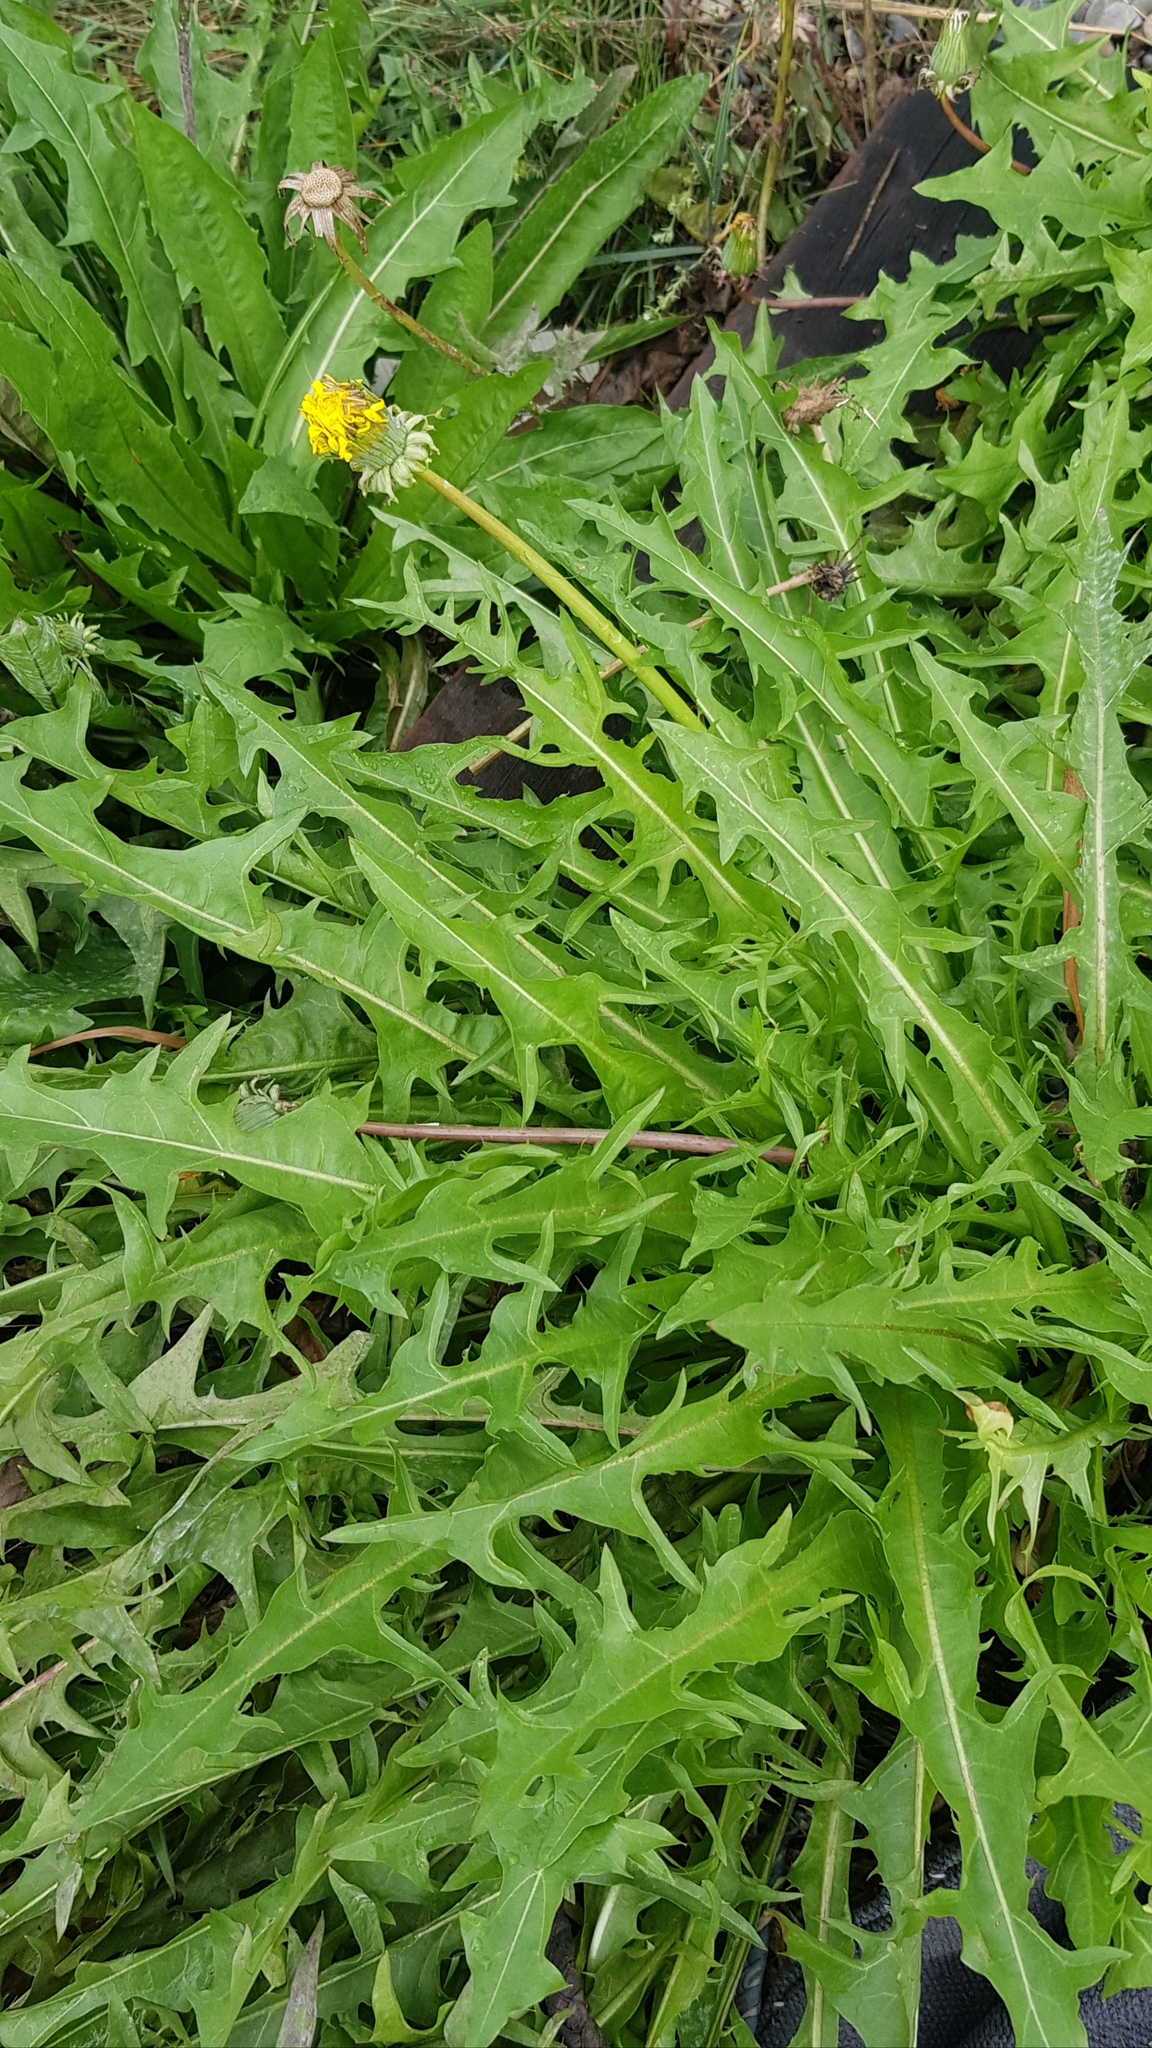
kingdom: Plantae
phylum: Tracheophyta
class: Magnoliopsida
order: Asterales
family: Asteraceae
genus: Taraxacum
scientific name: Taraxacum officinale
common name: Common dandelion
